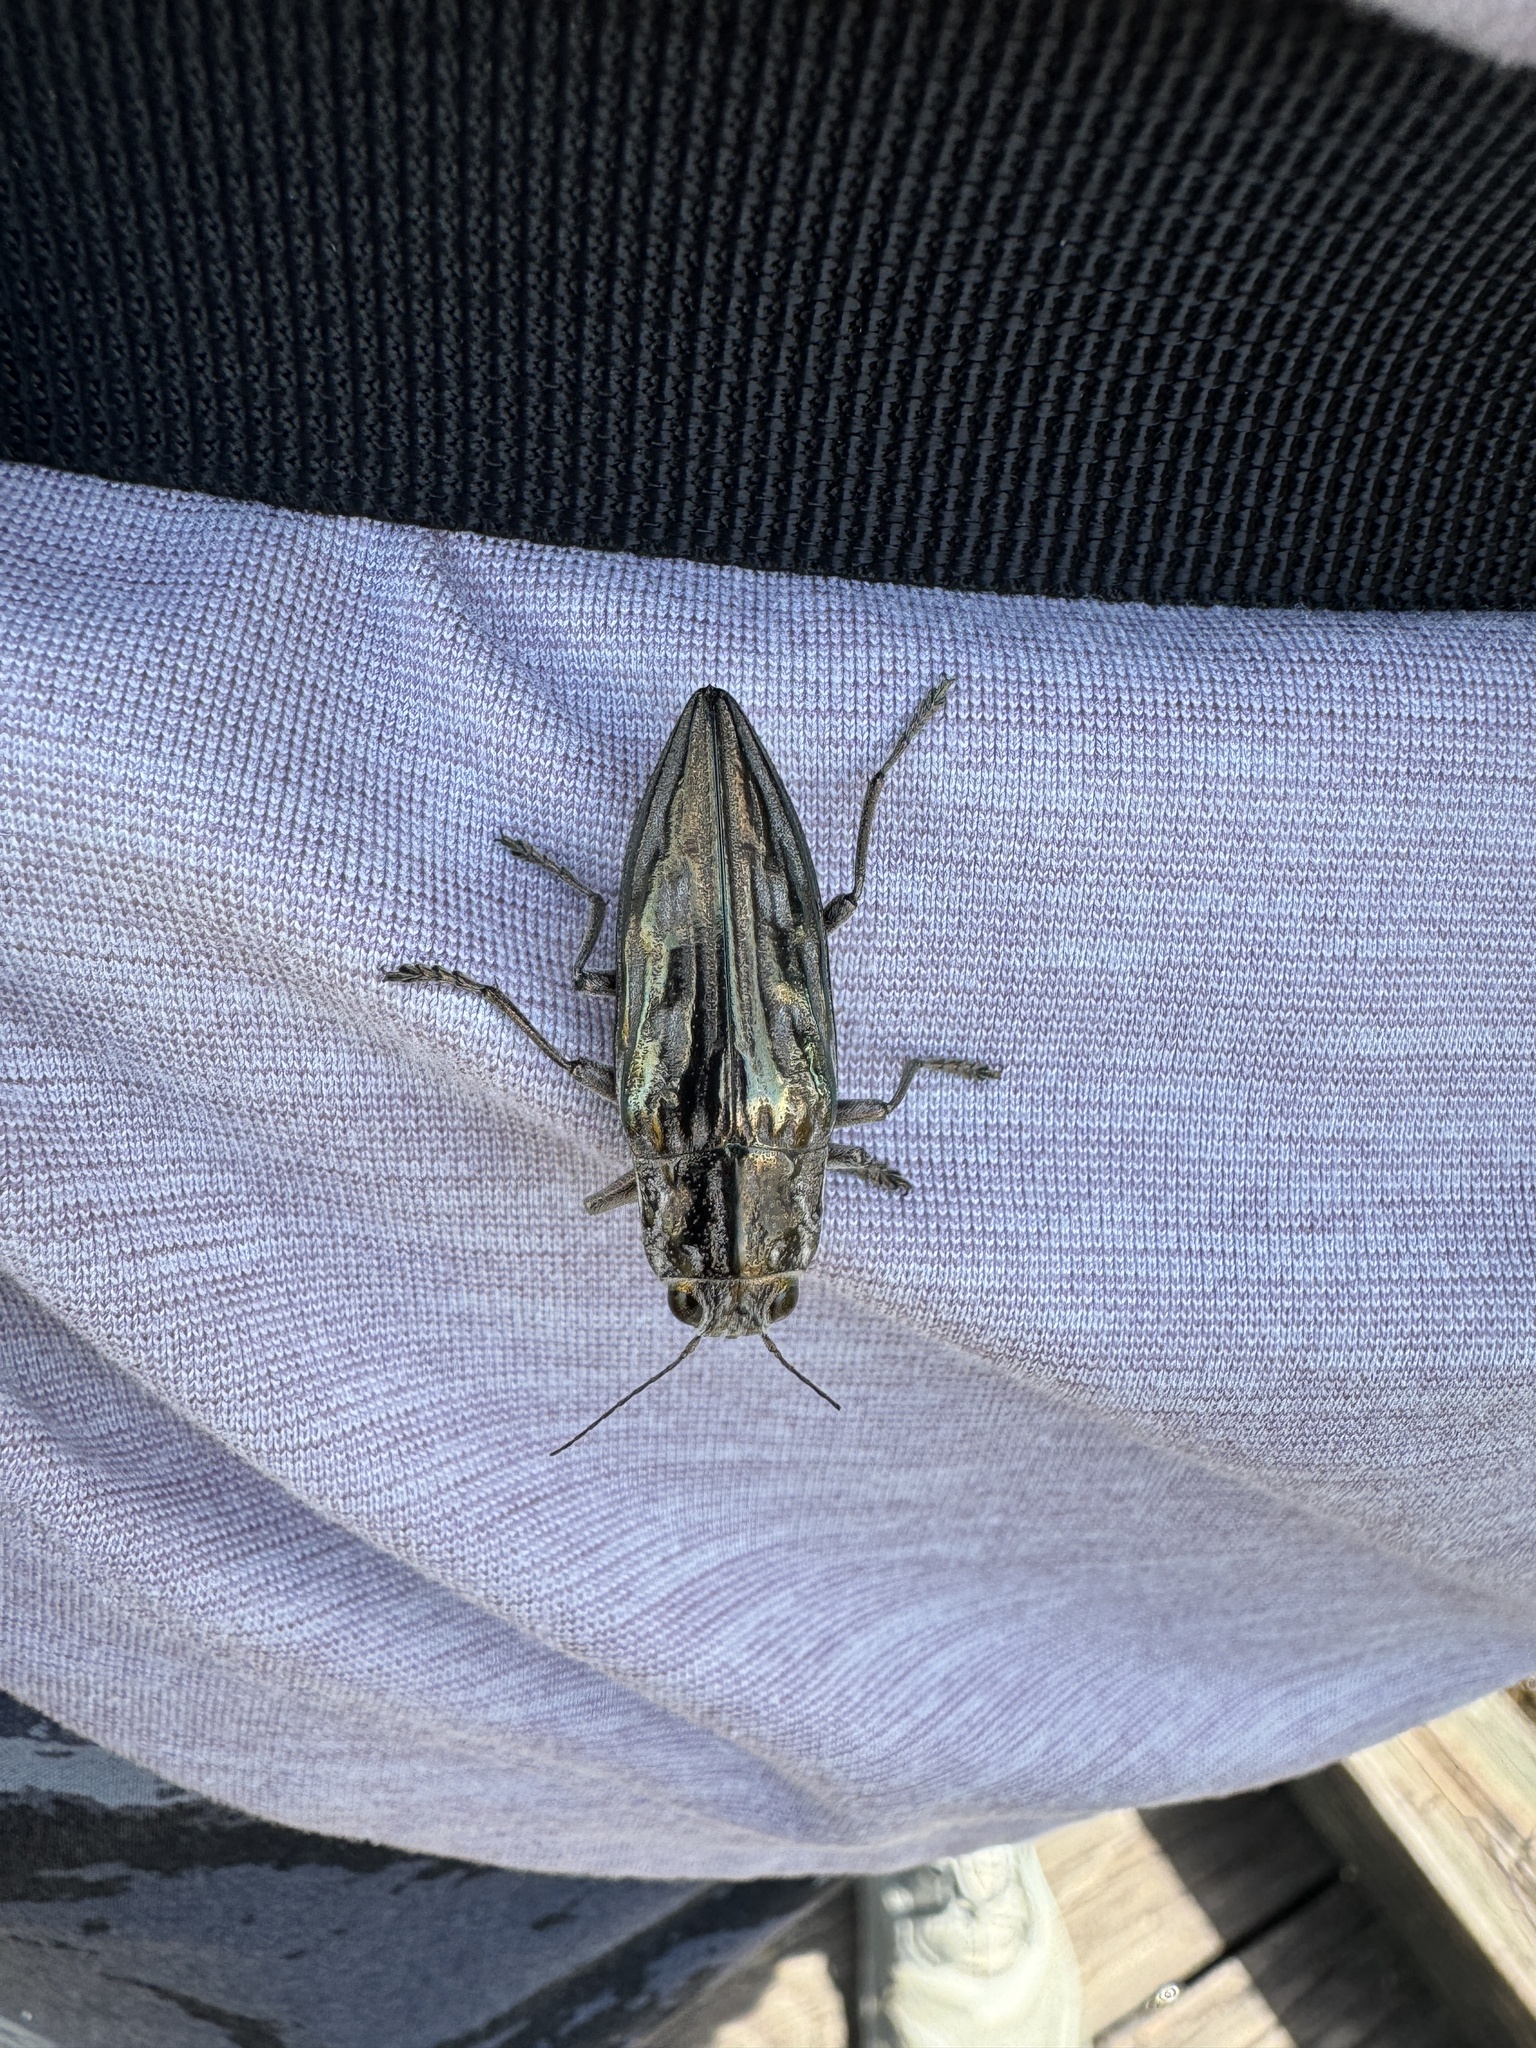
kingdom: Animalia
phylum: Arthropoda
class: Insecta
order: Coleoptera
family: Buprestidae
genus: Chalcophora
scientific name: Chalcophora georgiana
